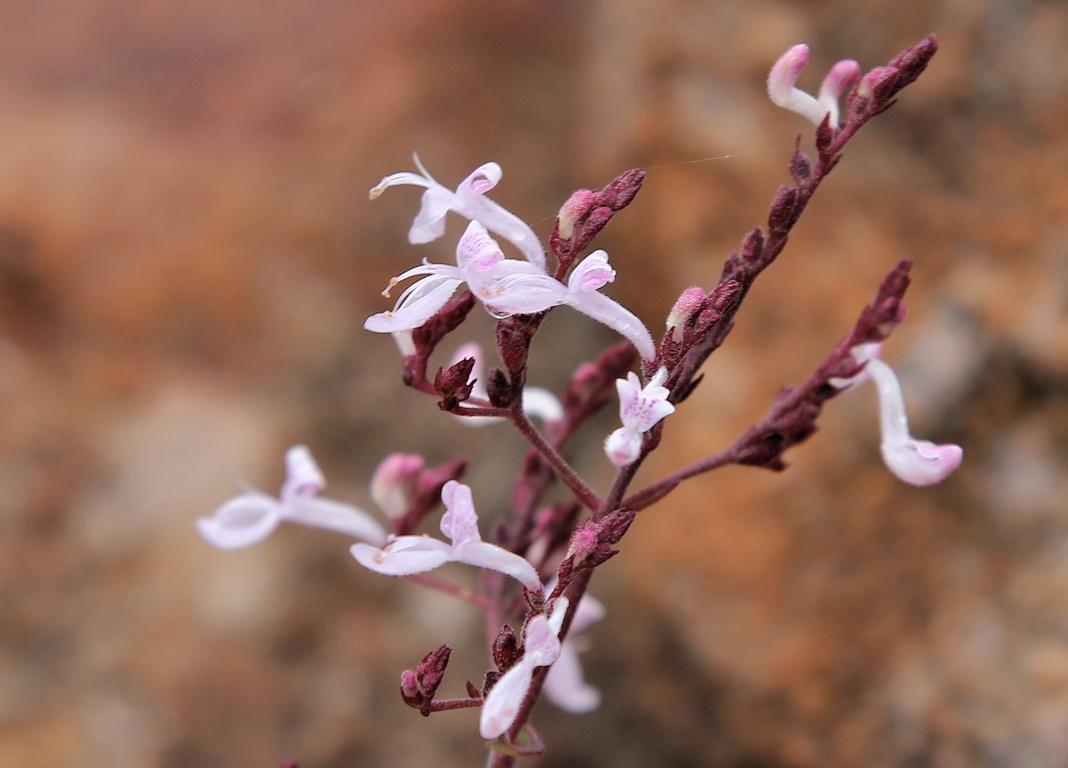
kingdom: Plantae
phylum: Tracheophyta
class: Magnoliopsida
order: Lamiales
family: Lamiaceae
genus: Aeollanthus
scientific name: Aeollanthus rehmannii
